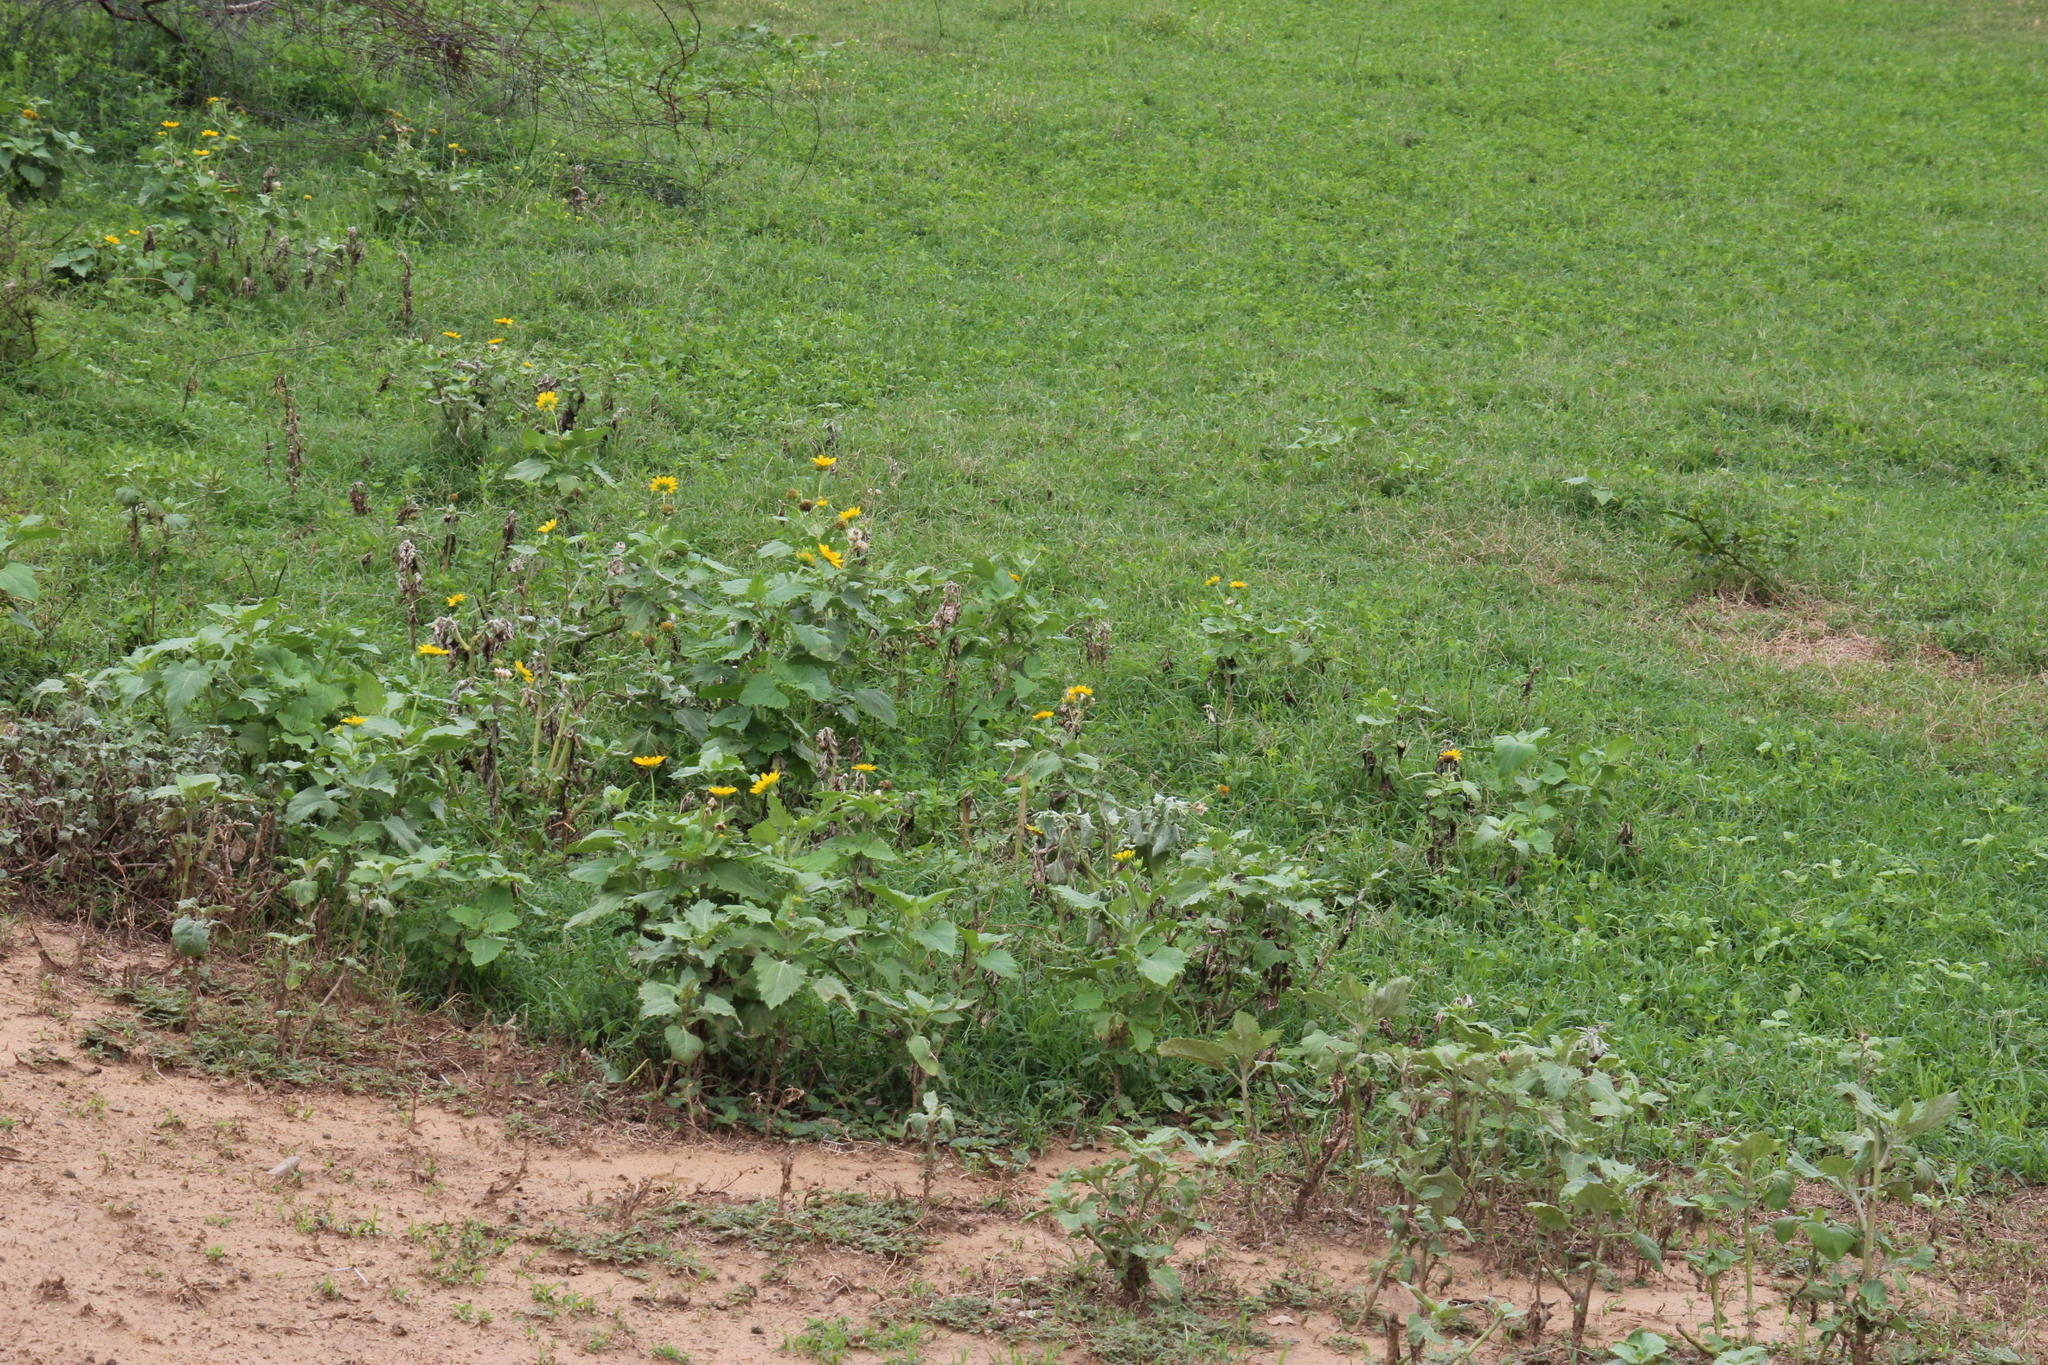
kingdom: Plantae
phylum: Tracheophyta
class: Magnoliopsida
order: Asterales
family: Asteraceae
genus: Verbesina
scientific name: Verbesina encelioides
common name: Golden crownbeard
